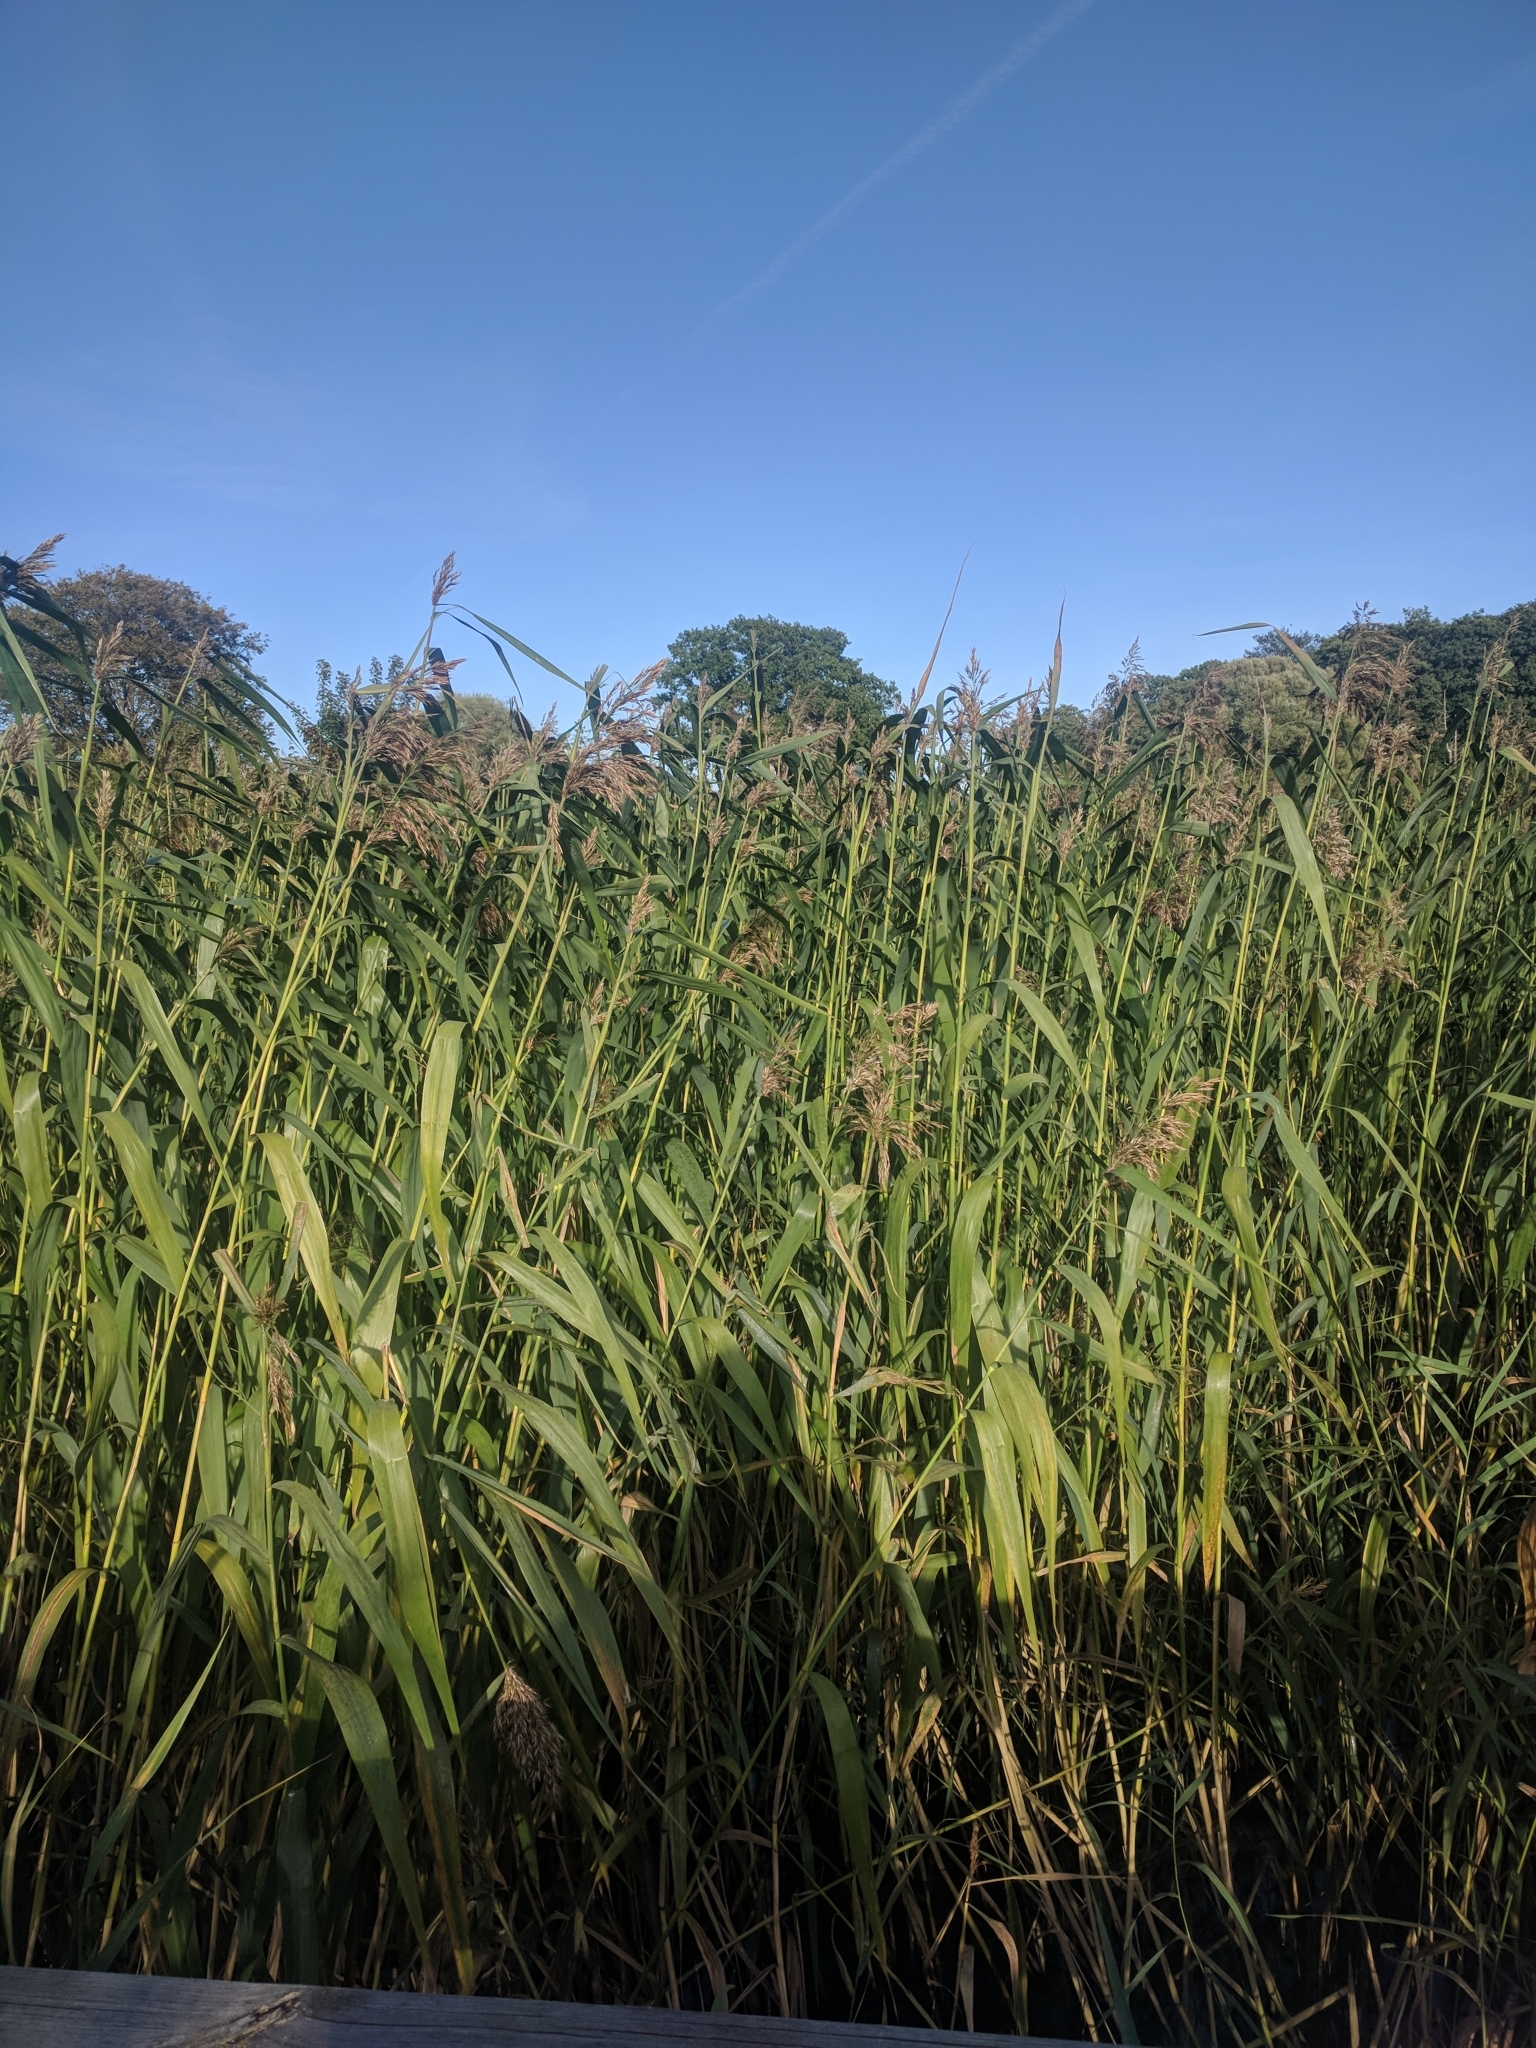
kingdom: Plantae
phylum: Tracheophyta
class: Liliopsida
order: Poales
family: Poaceae
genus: Phragmites
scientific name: Phragmites australis
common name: Common reed
